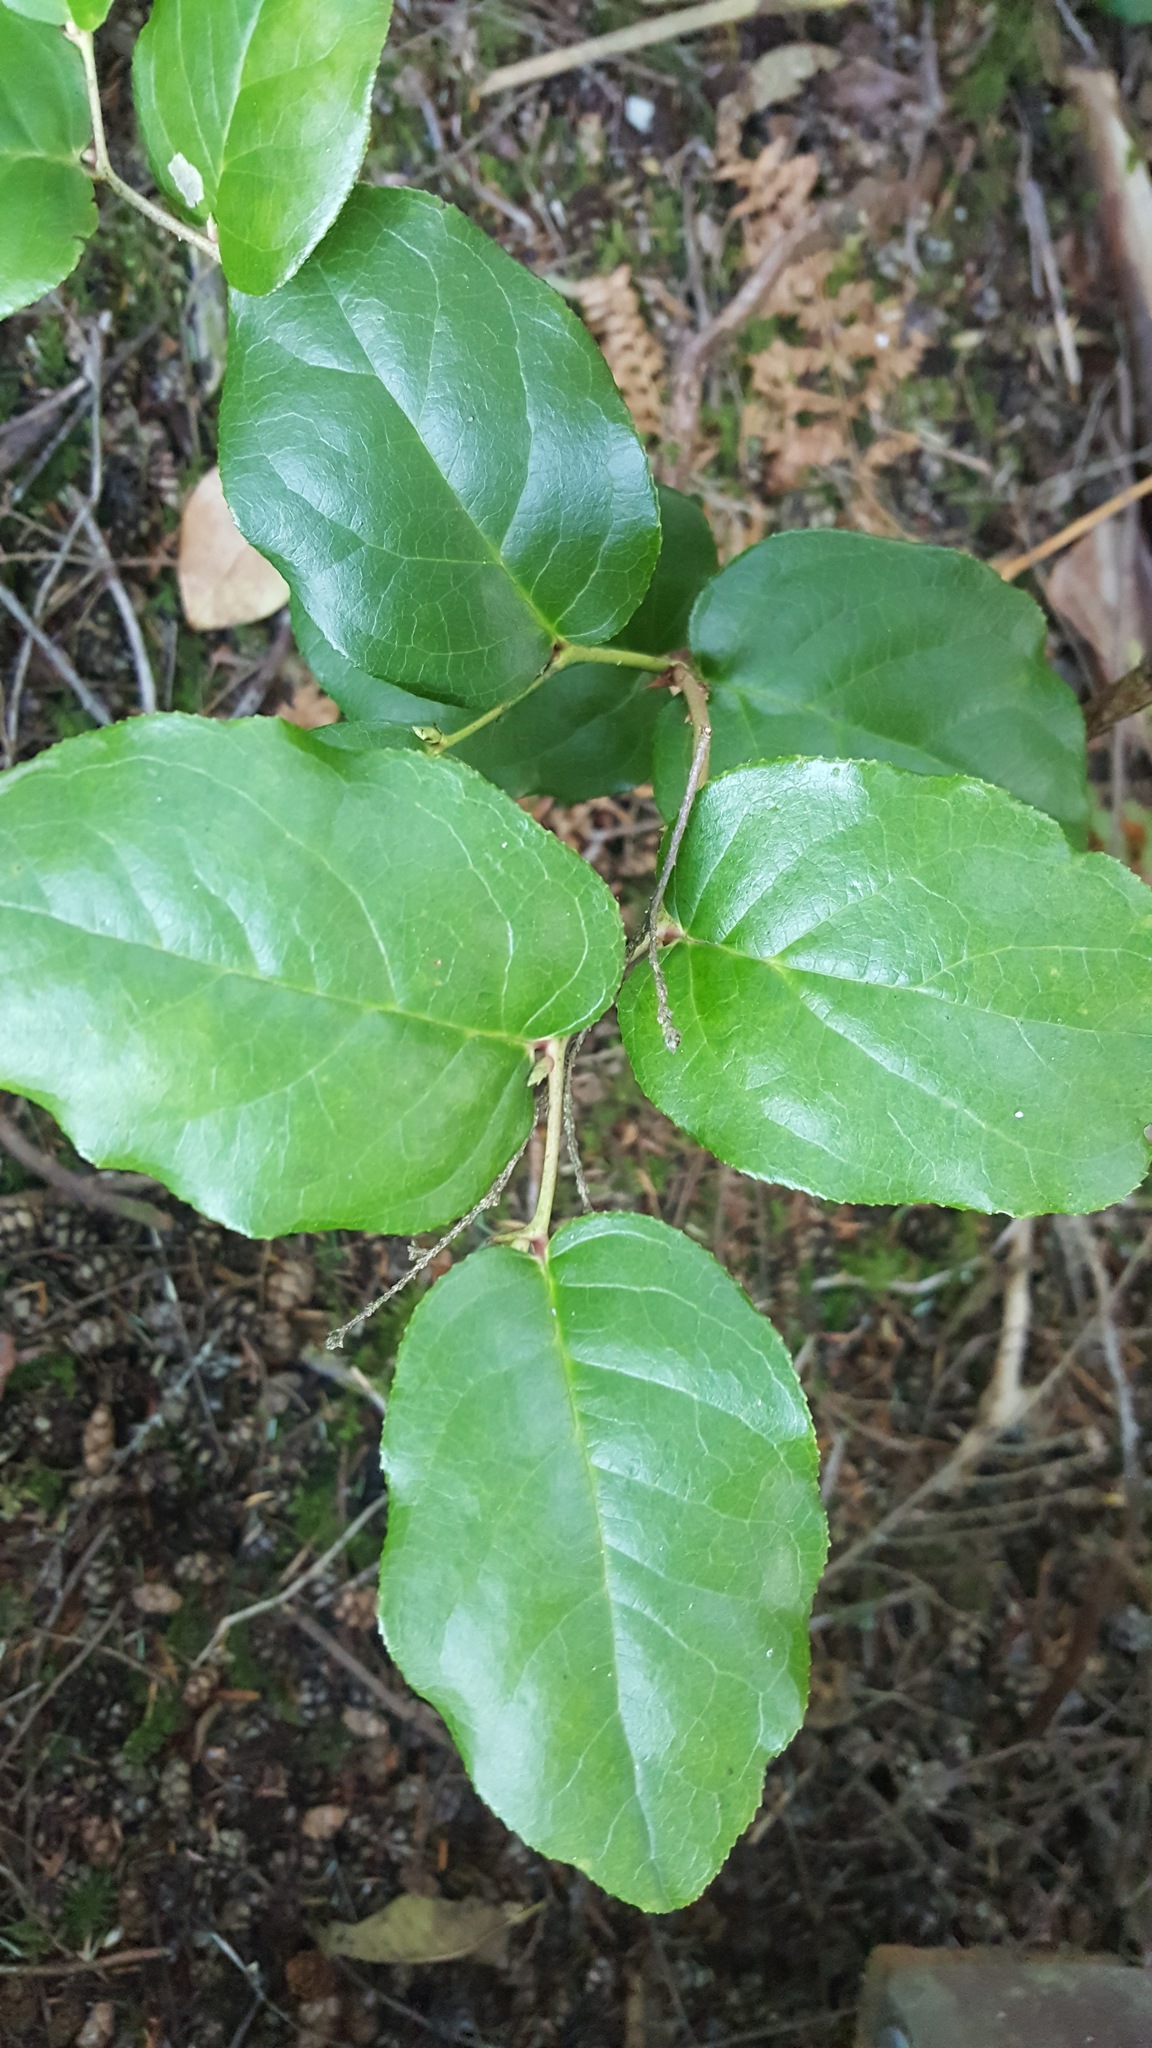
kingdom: Plantae
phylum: Tracheophyta
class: Magnoliopsida
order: Ericales
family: Ericaceae
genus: Gaultheria
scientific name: Gaultheria shallon
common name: Shallon
